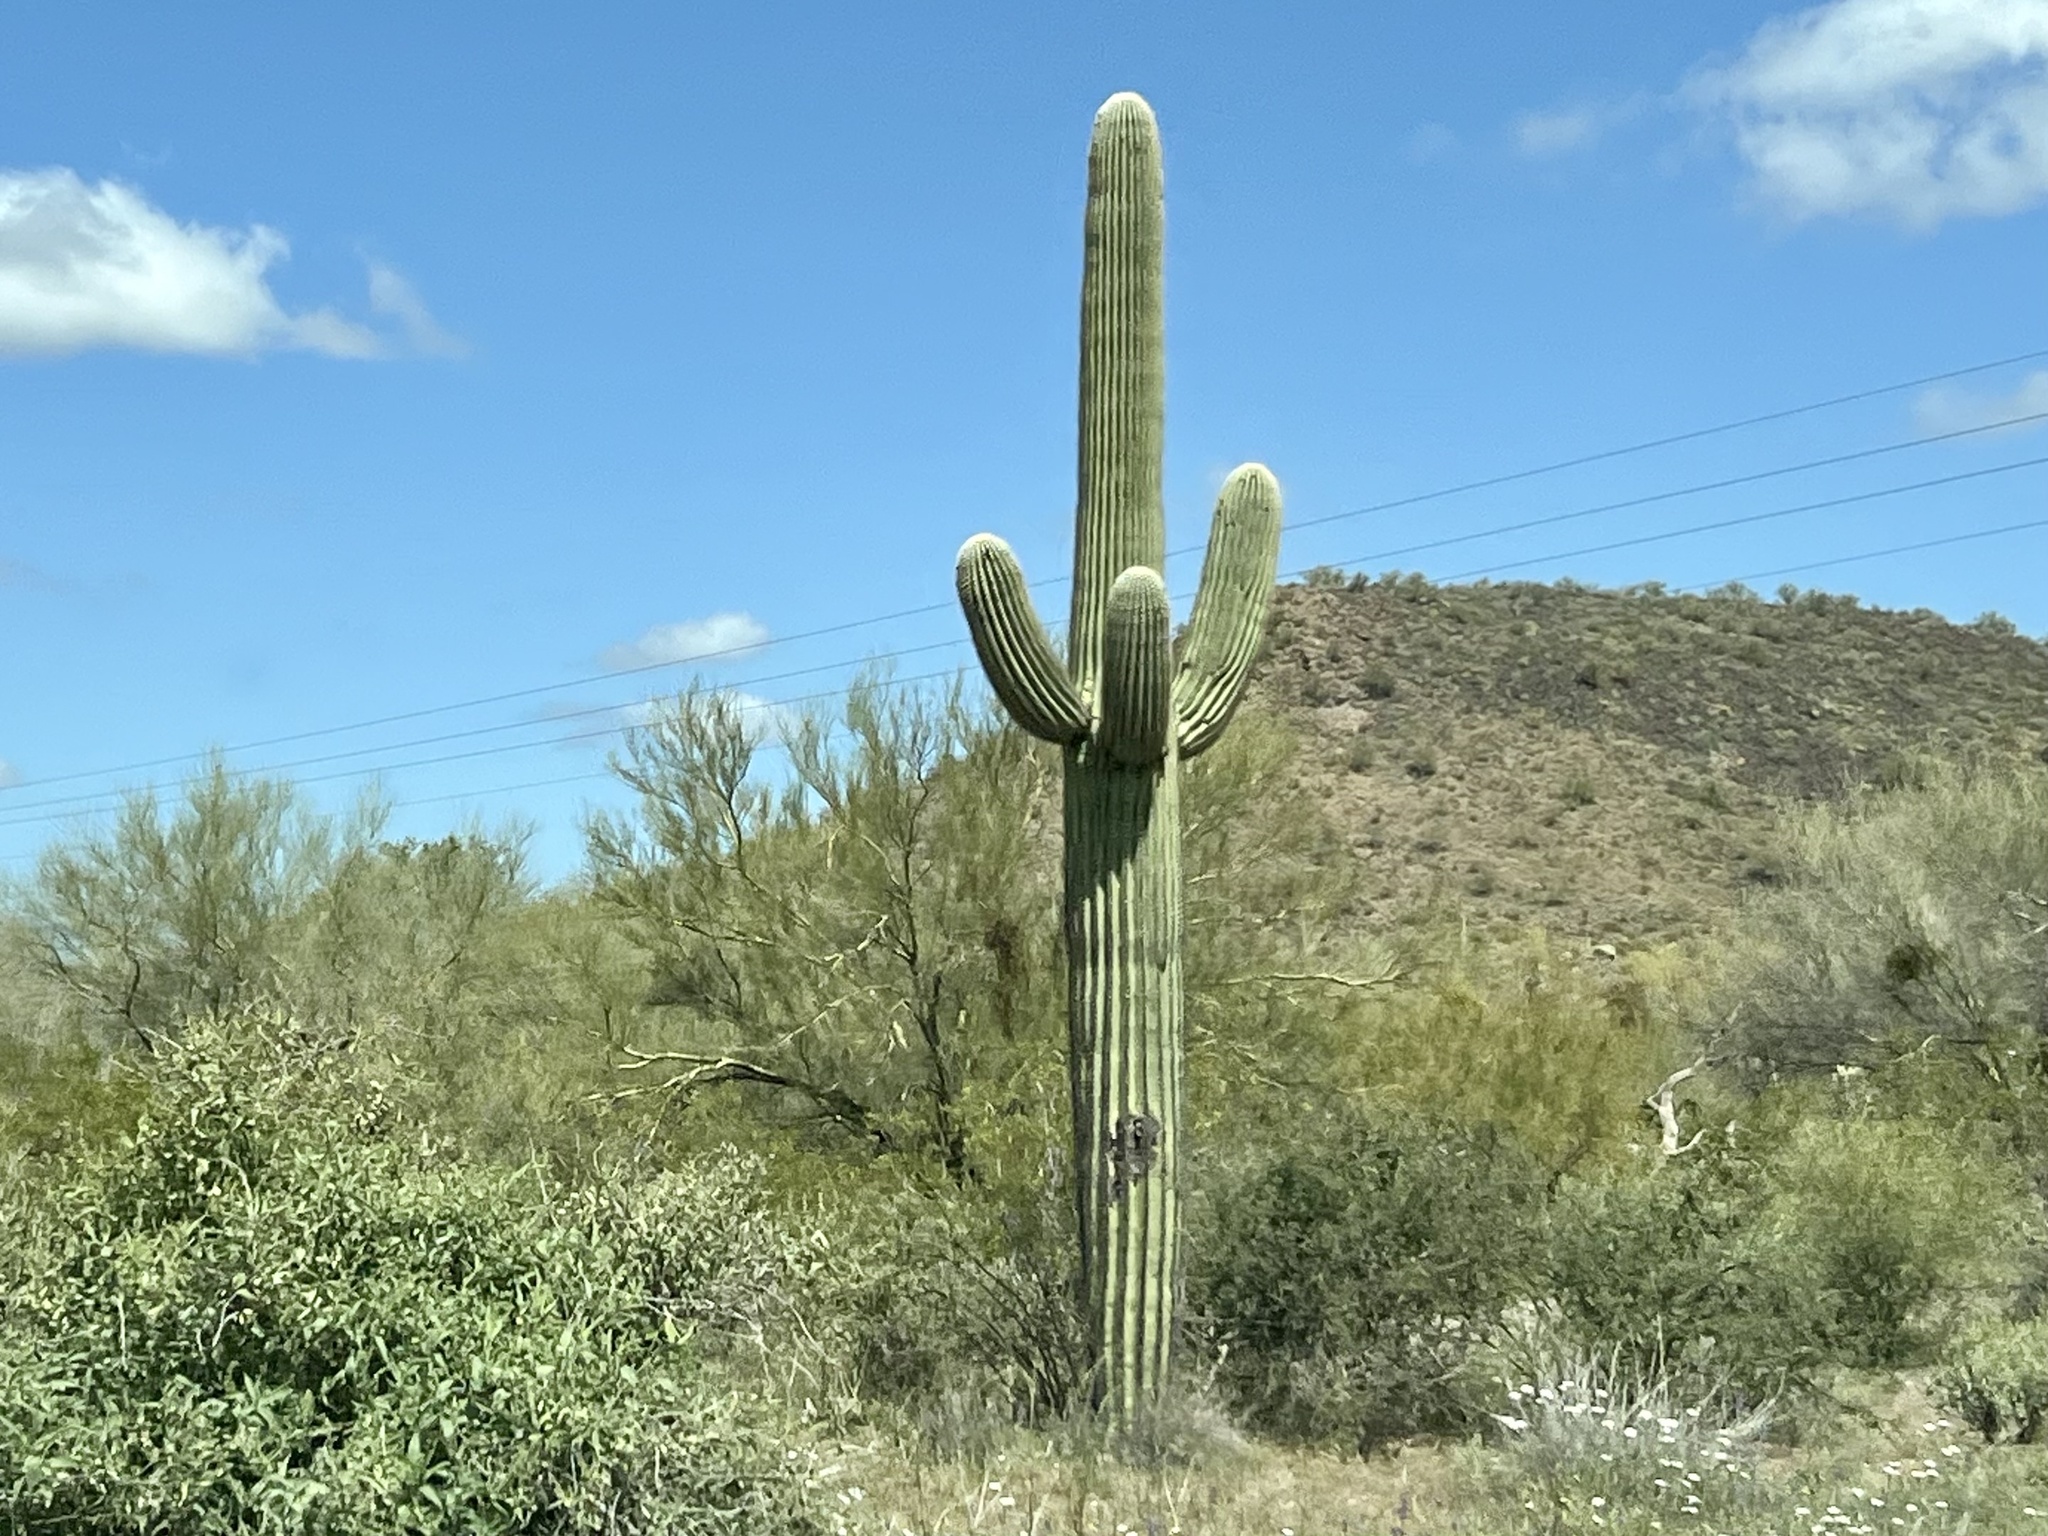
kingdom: Plantae
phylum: Tracheophyta
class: Magnoliopsida
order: Caryophyllales
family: Cactaceae
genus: Carnegiea
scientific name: Carnegiea gigantea
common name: Saguaro
